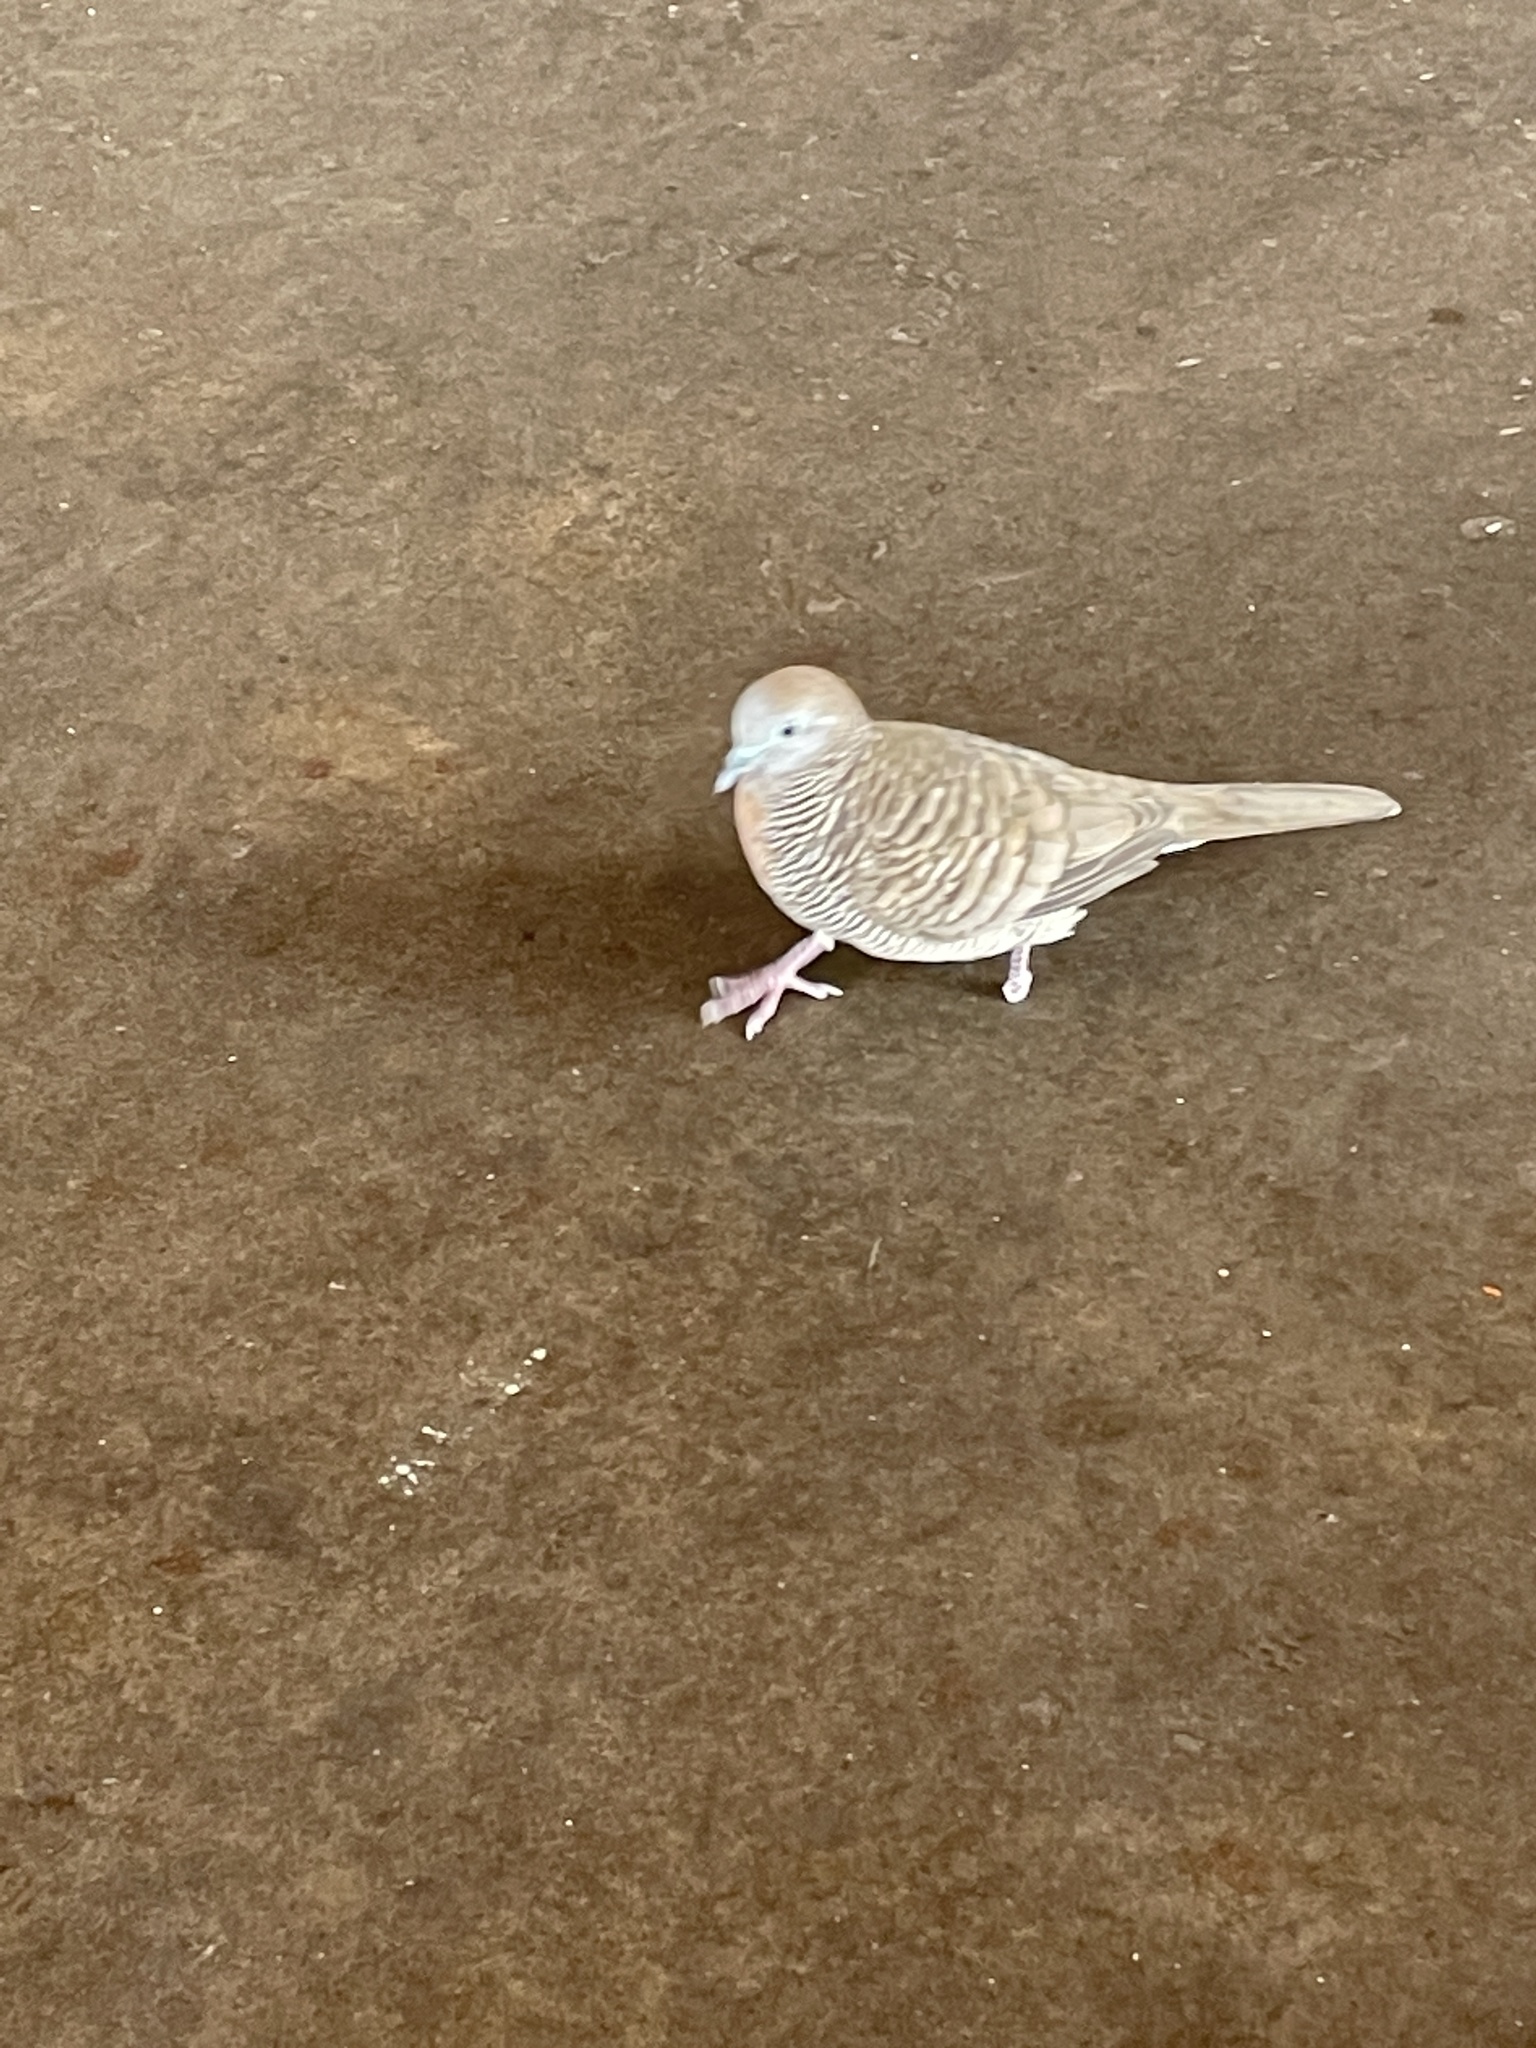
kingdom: Animalia
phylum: Chordata
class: Aves
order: Columbiformes
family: Columbidae
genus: Geopelia
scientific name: Geopelia striata
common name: Zebra dove
